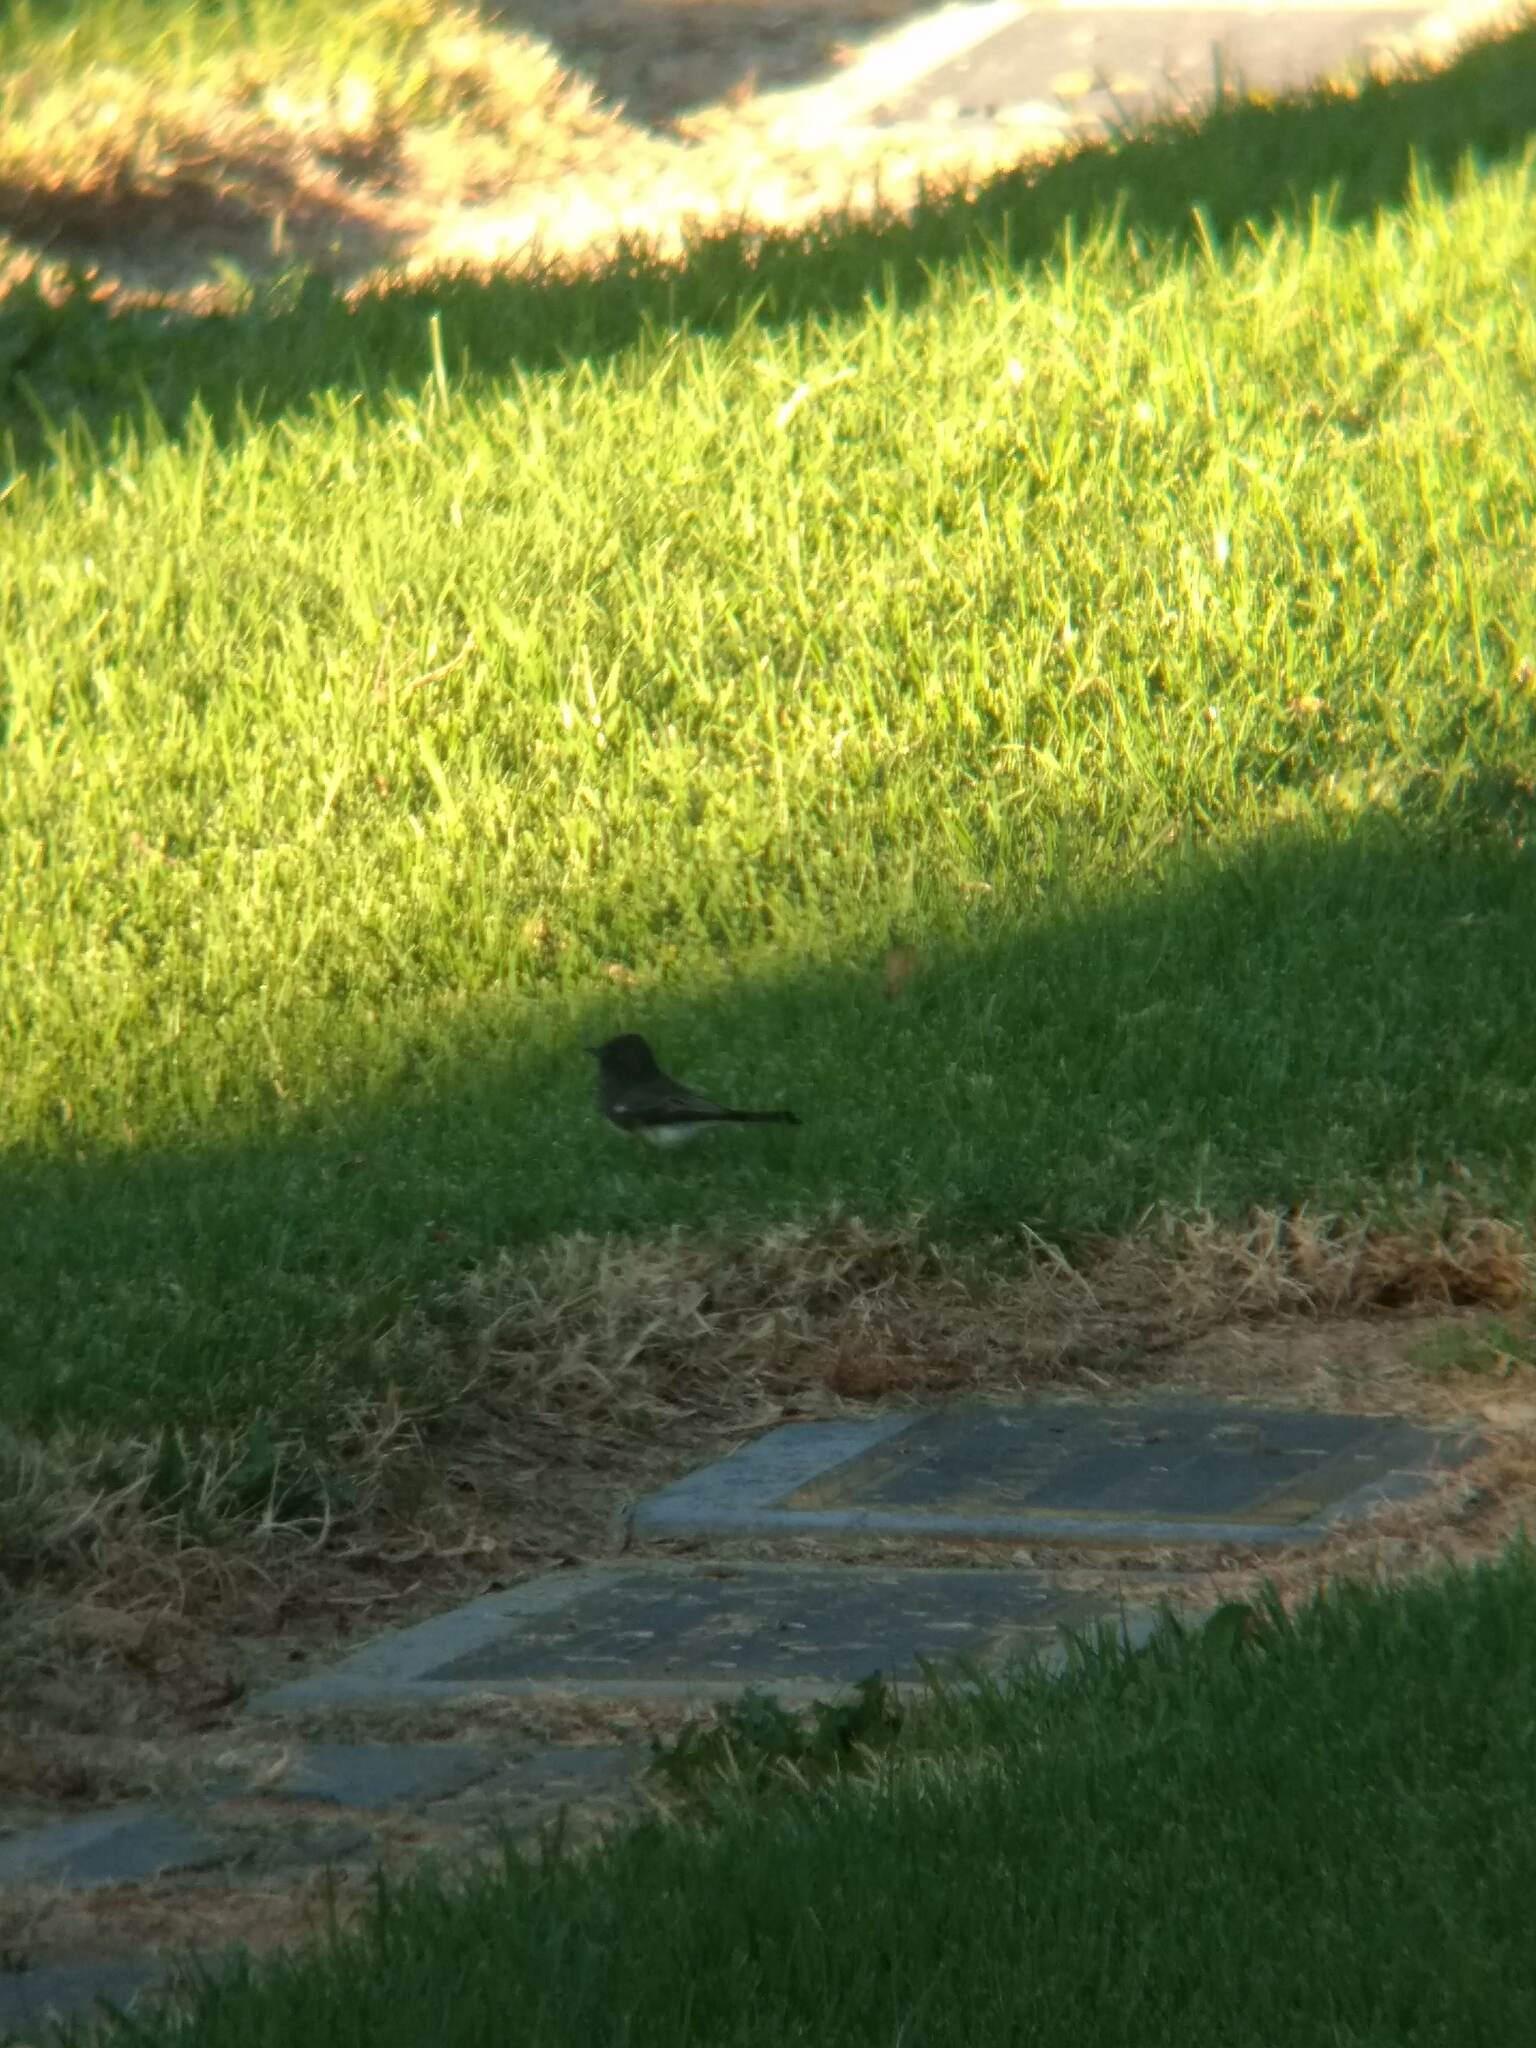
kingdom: Animalia
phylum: Chordata
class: Aves
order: Passeriformes
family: Tyrannidae
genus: Sayornis
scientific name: Sayornis nigricans
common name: Black phoebe
